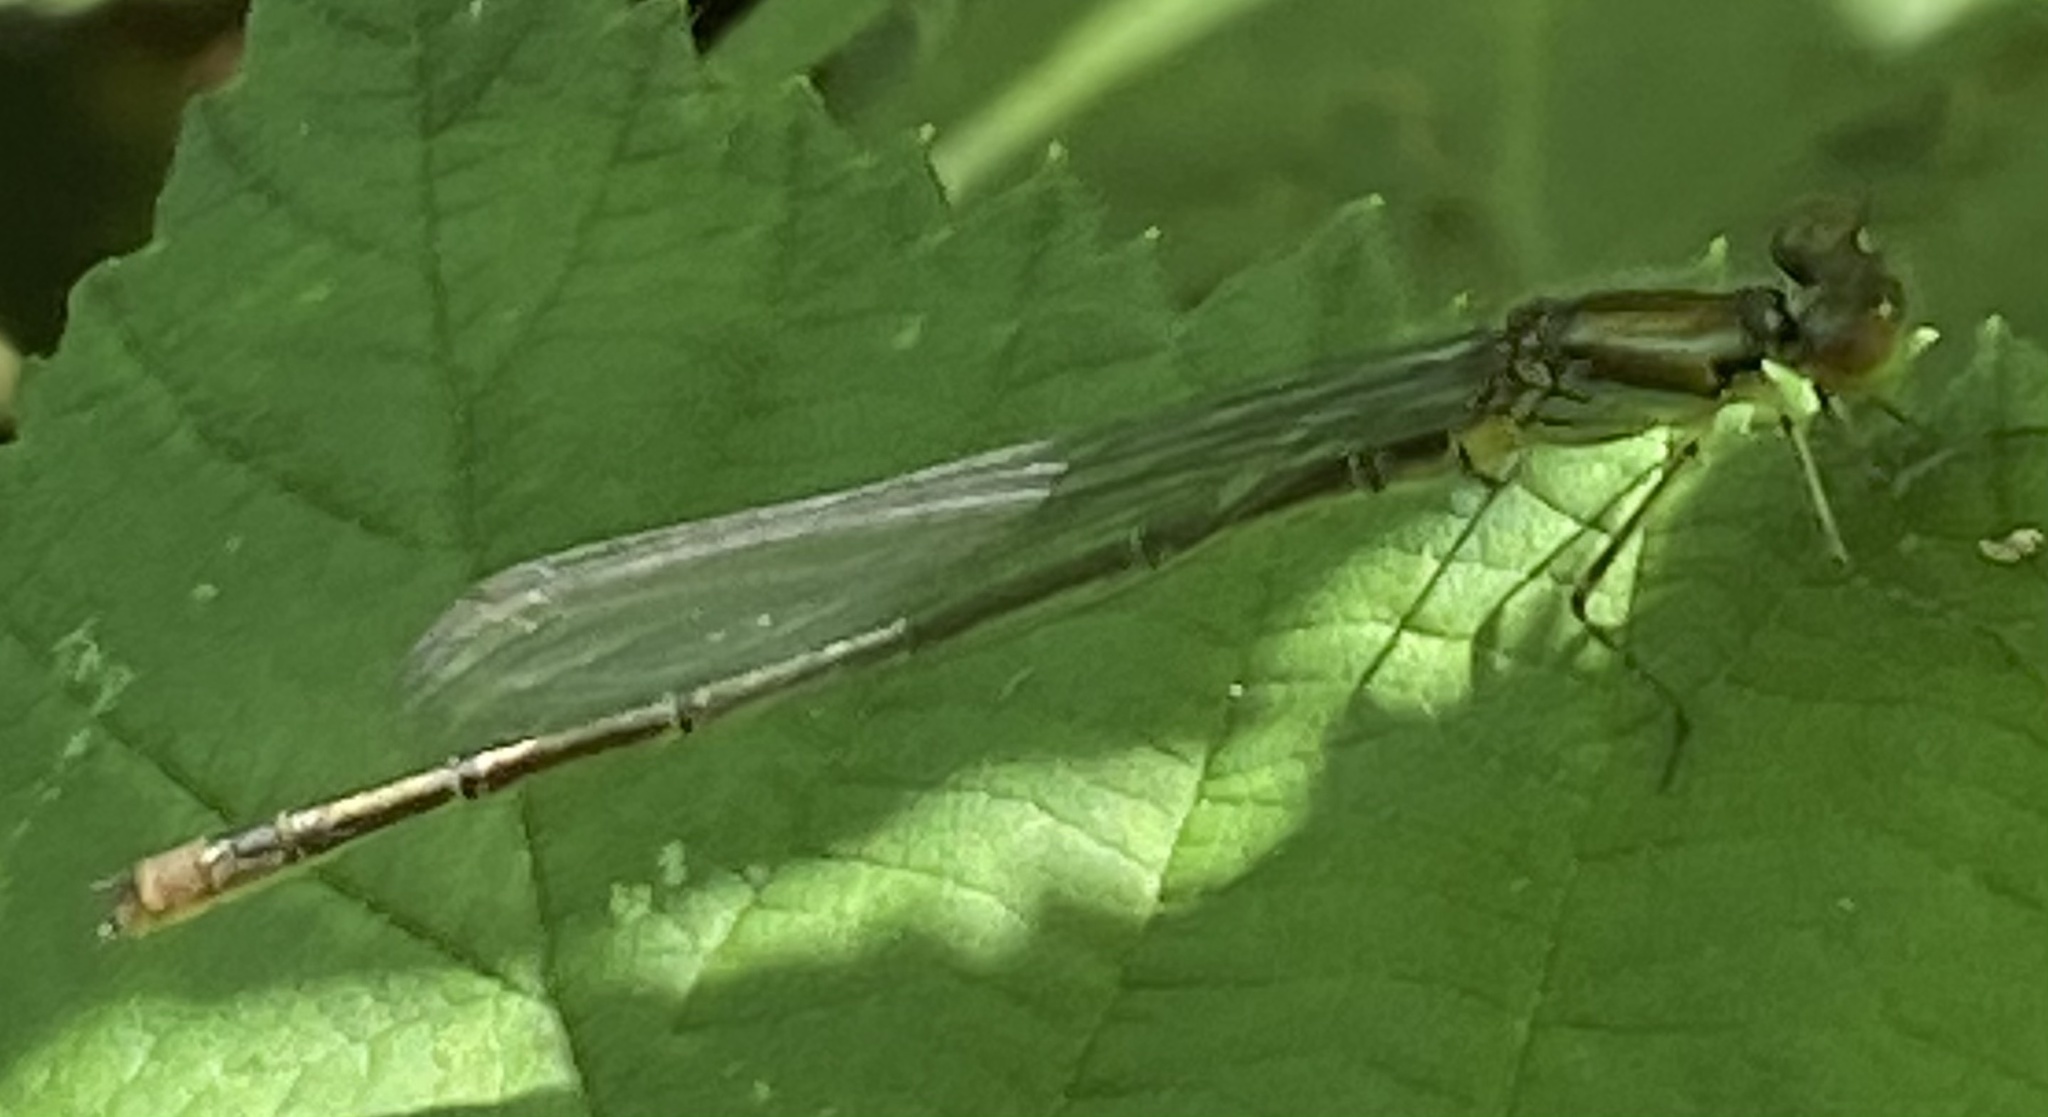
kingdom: Animalia
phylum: Arthropoda
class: Insecta
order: Odonata
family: Coenagrionidae
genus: Erythromma
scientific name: Erythromma viridulum
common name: Small red-eyed damselfly
